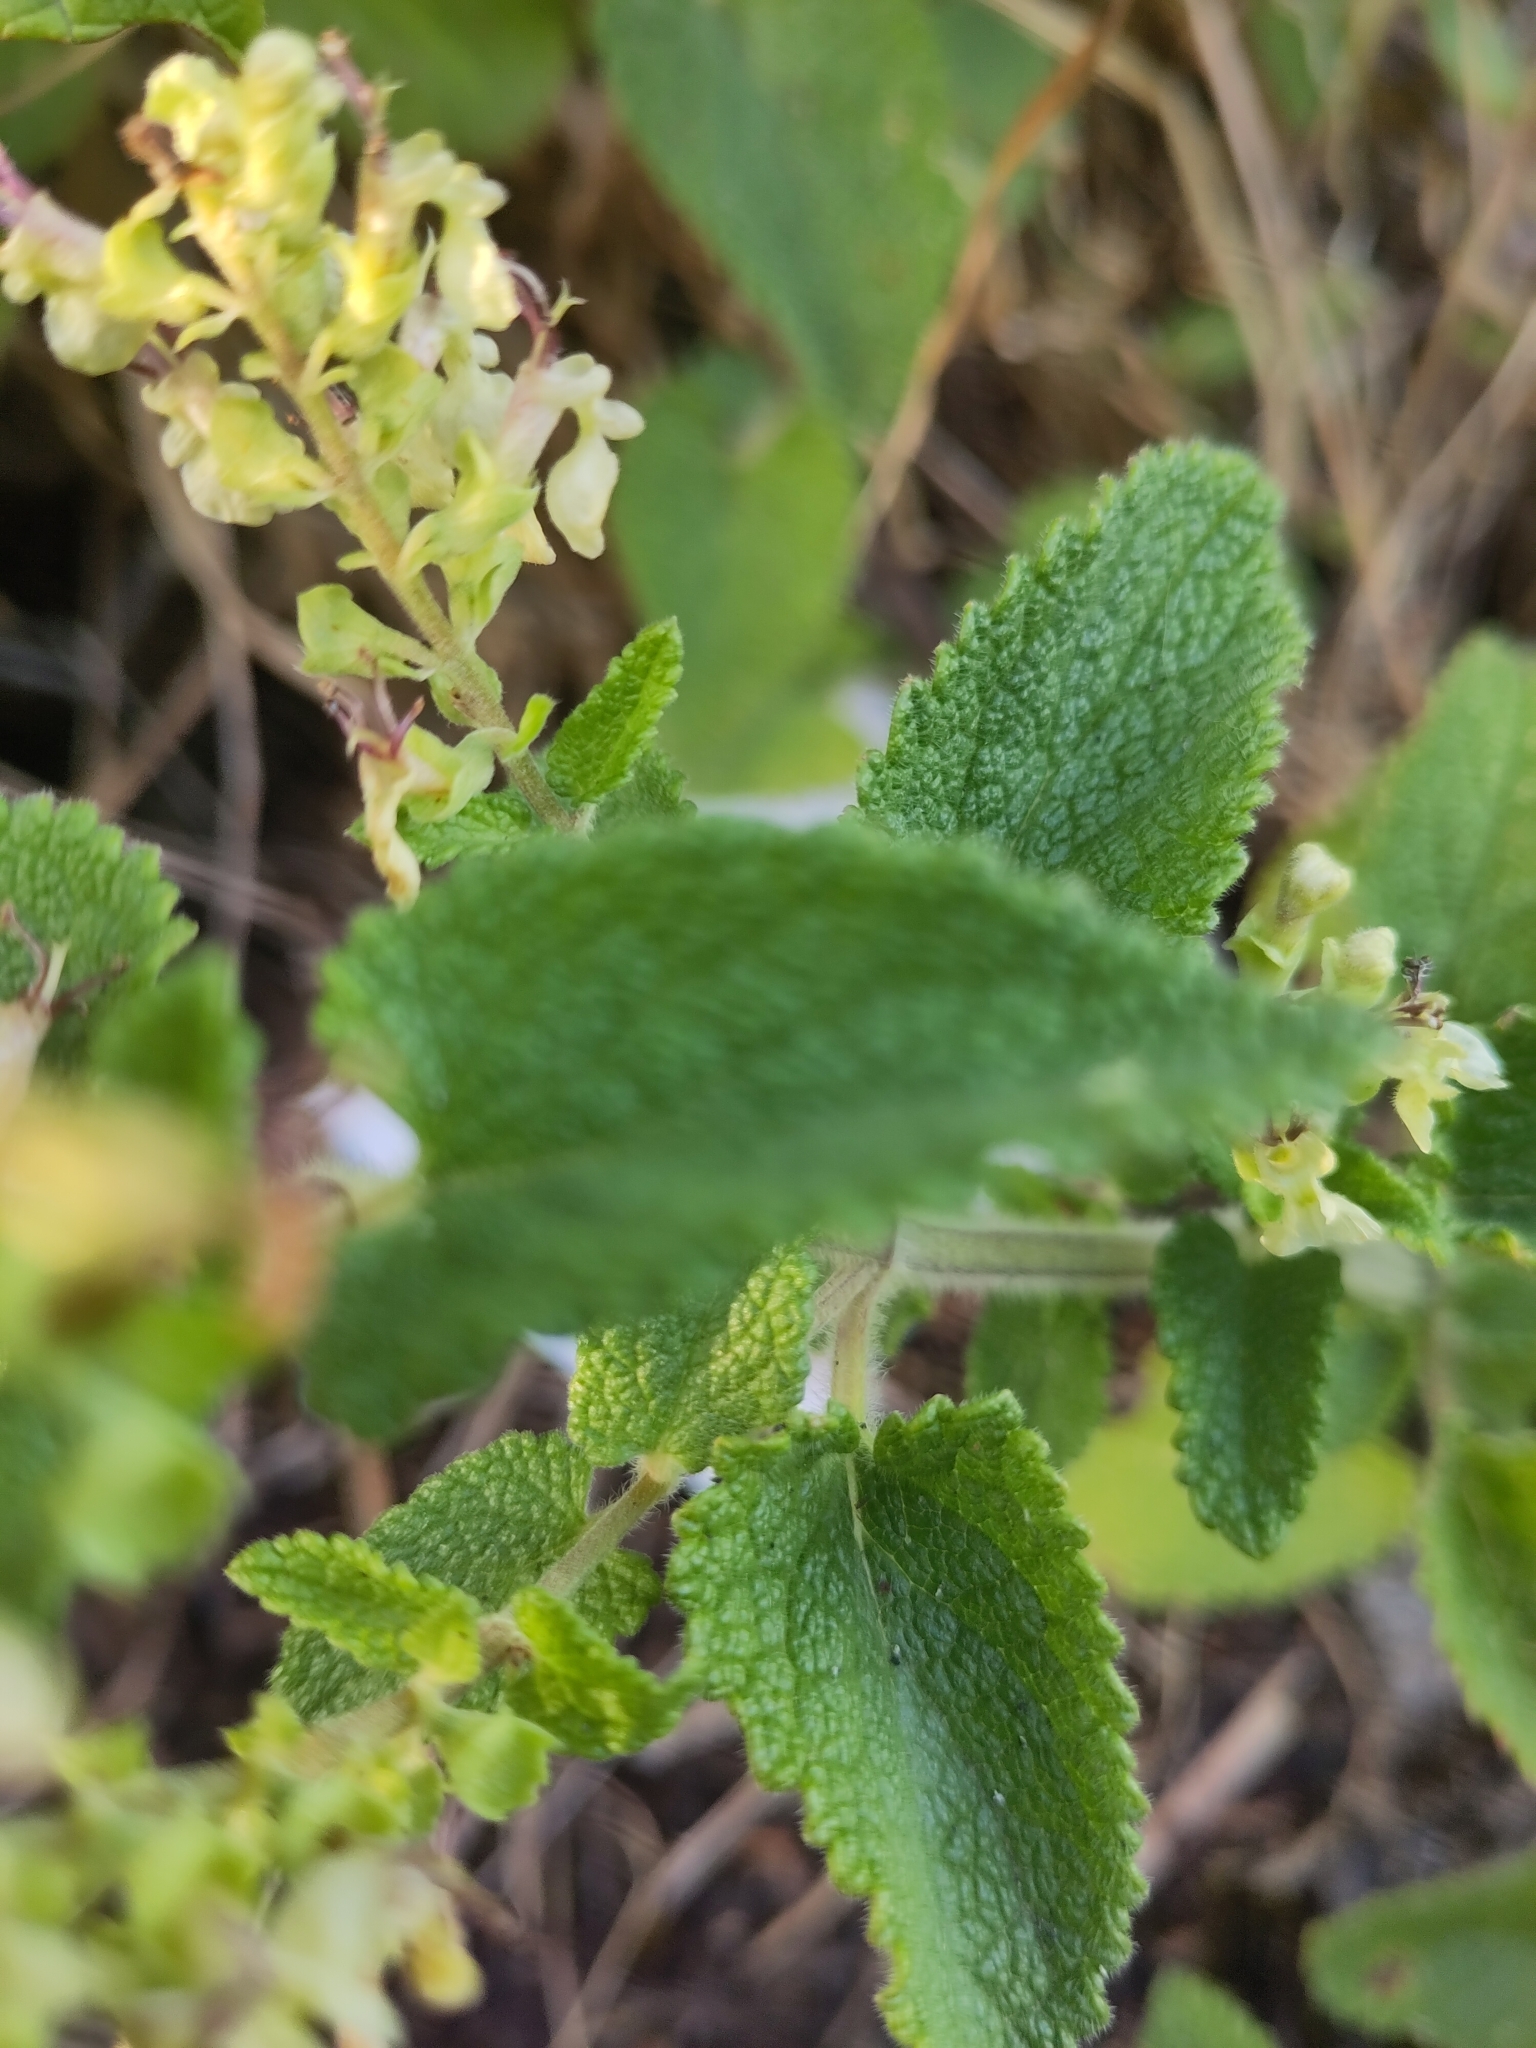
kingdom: Plantae
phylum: Tracheophyta
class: Magnoliopsida
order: Lamiales
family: Lamiaceae
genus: Teucrium
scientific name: Teucrium scorodonia
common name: Woodland germander
